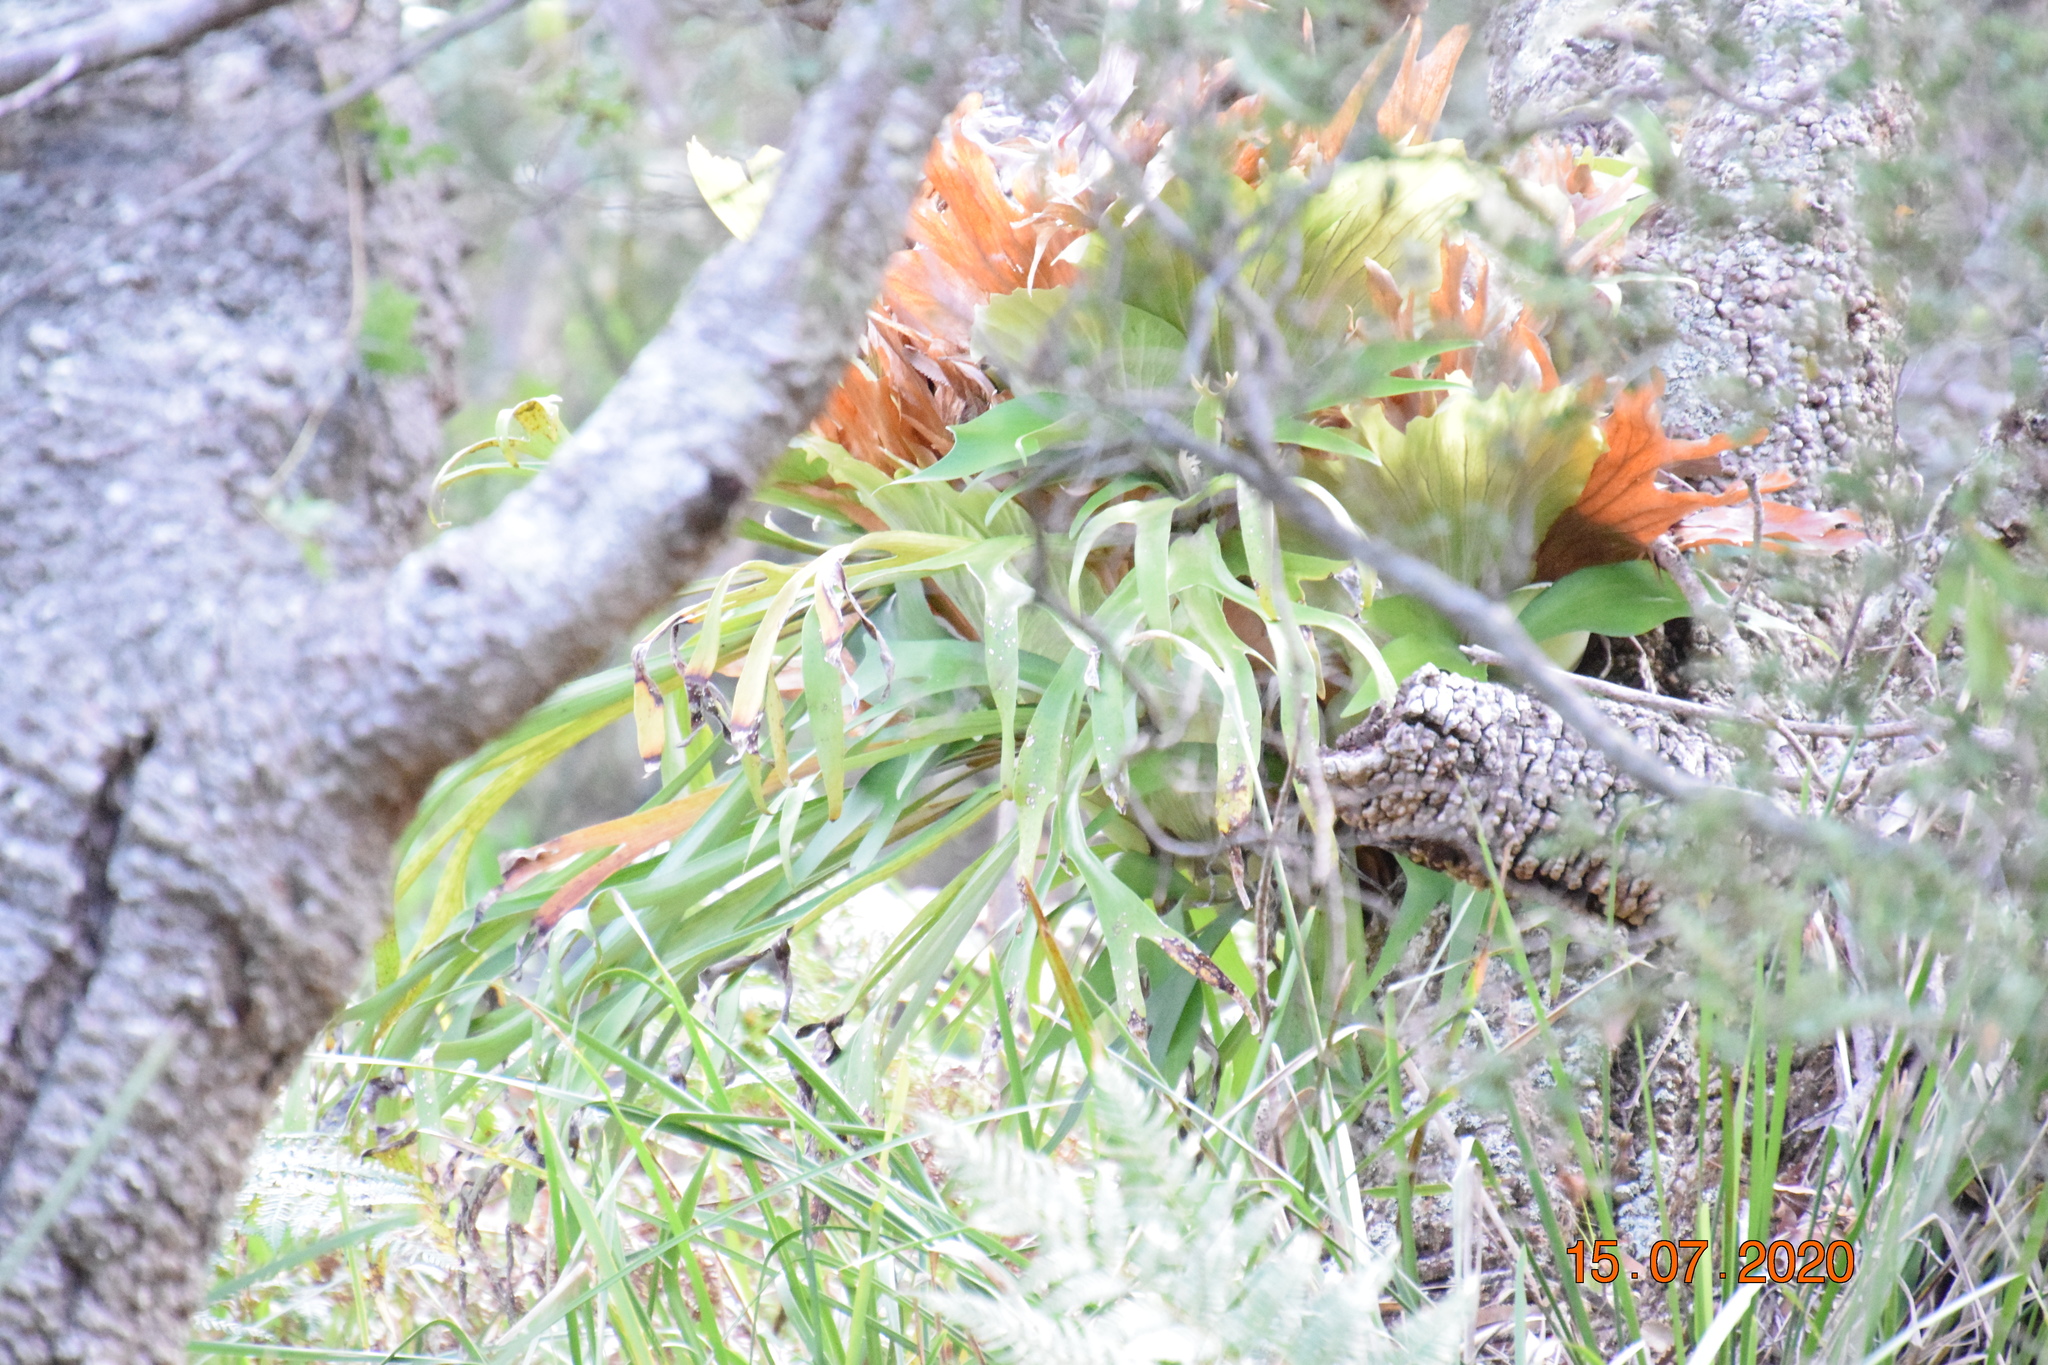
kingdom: Plantae
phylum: Tracheophyta
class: Polypodiopsida
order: Polypodiales
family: Polypodiaceae
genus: Platycerium
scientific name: Platycerium bifurcatum
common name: Elkhorn fern
